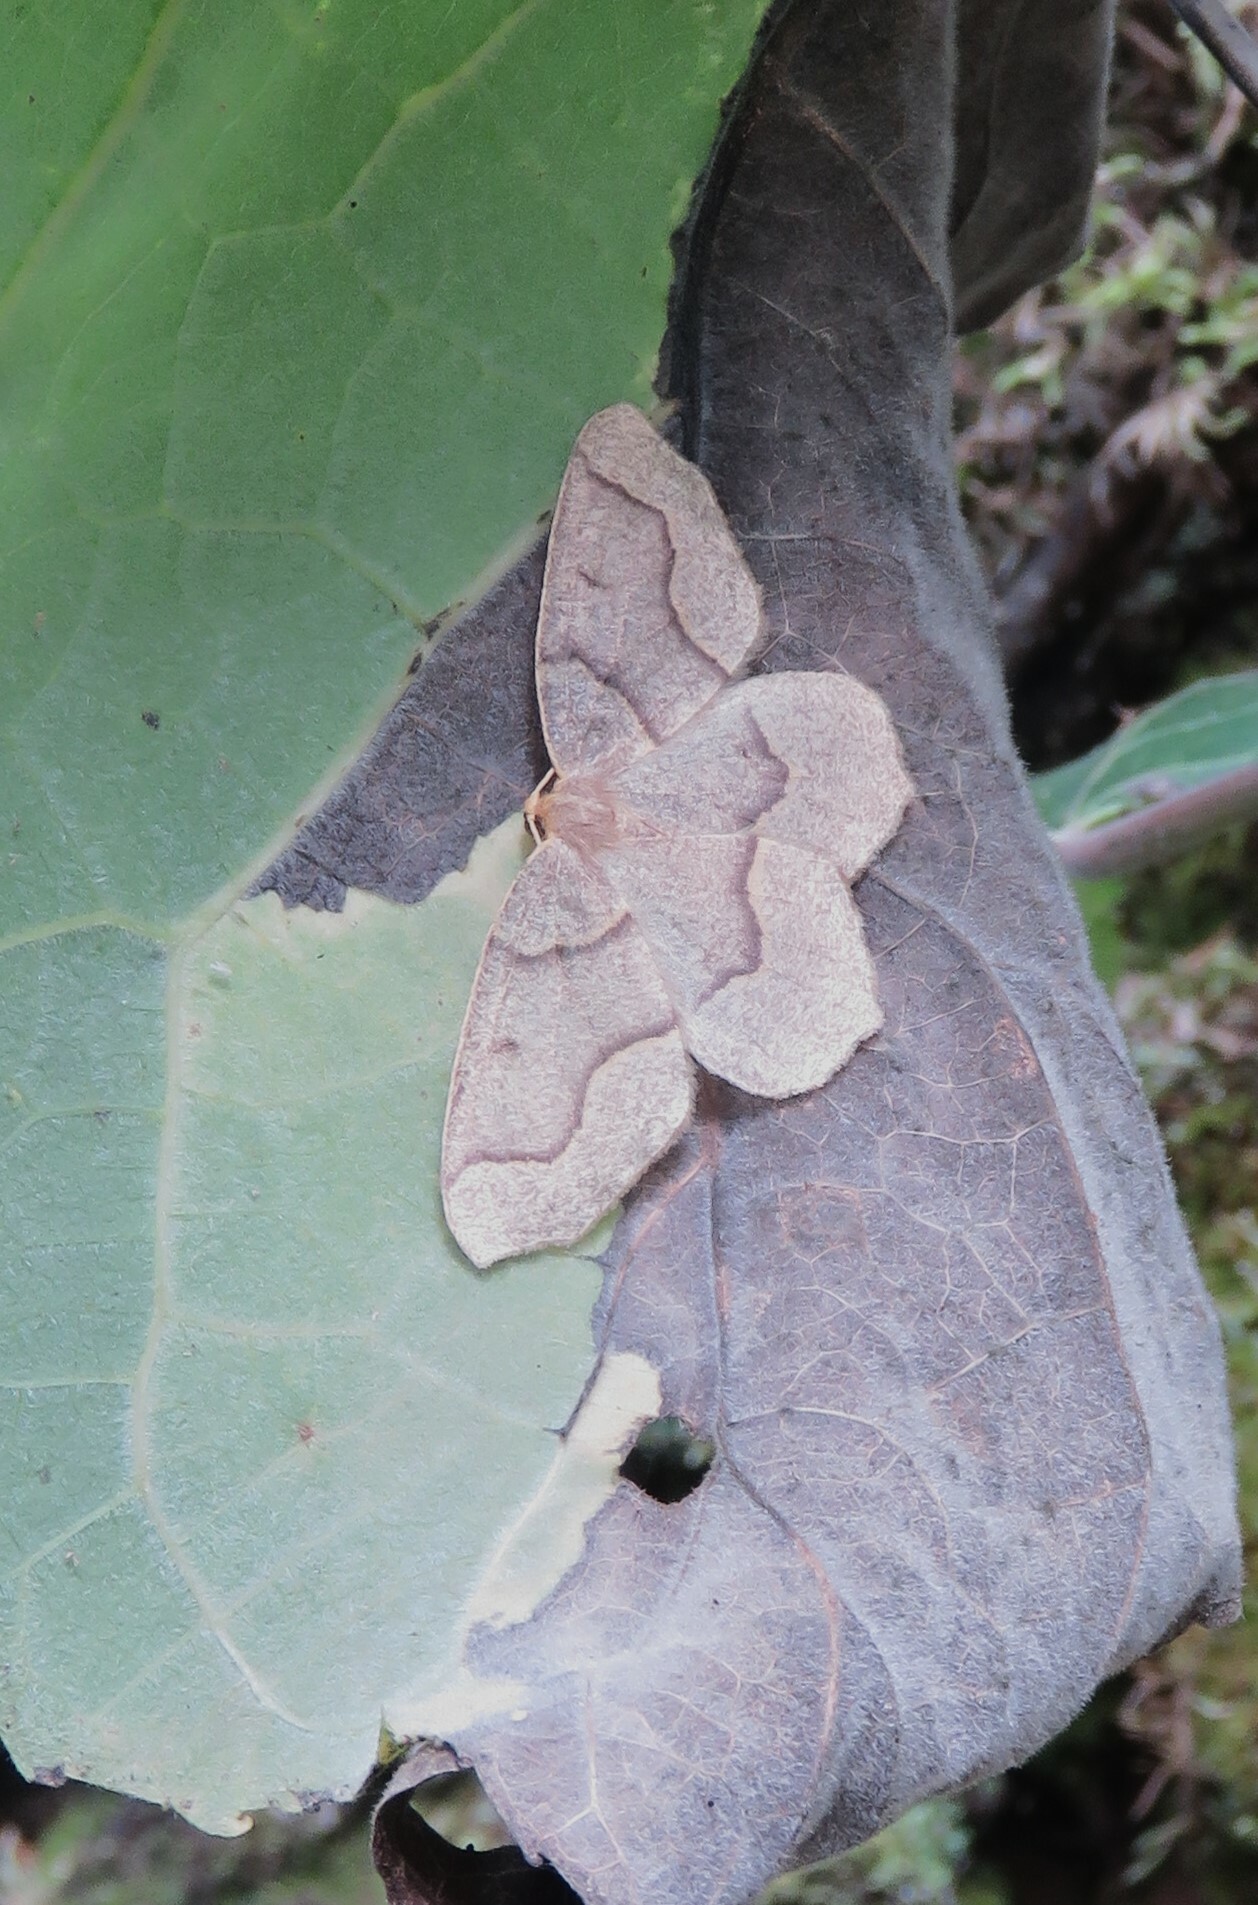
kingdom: Animalia
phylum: Arthropoda
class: Insecta
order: Lepidoptera
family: Geometridae
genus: Lambdina
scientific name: Lambdina fiscellaria
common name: Hemlock looper
